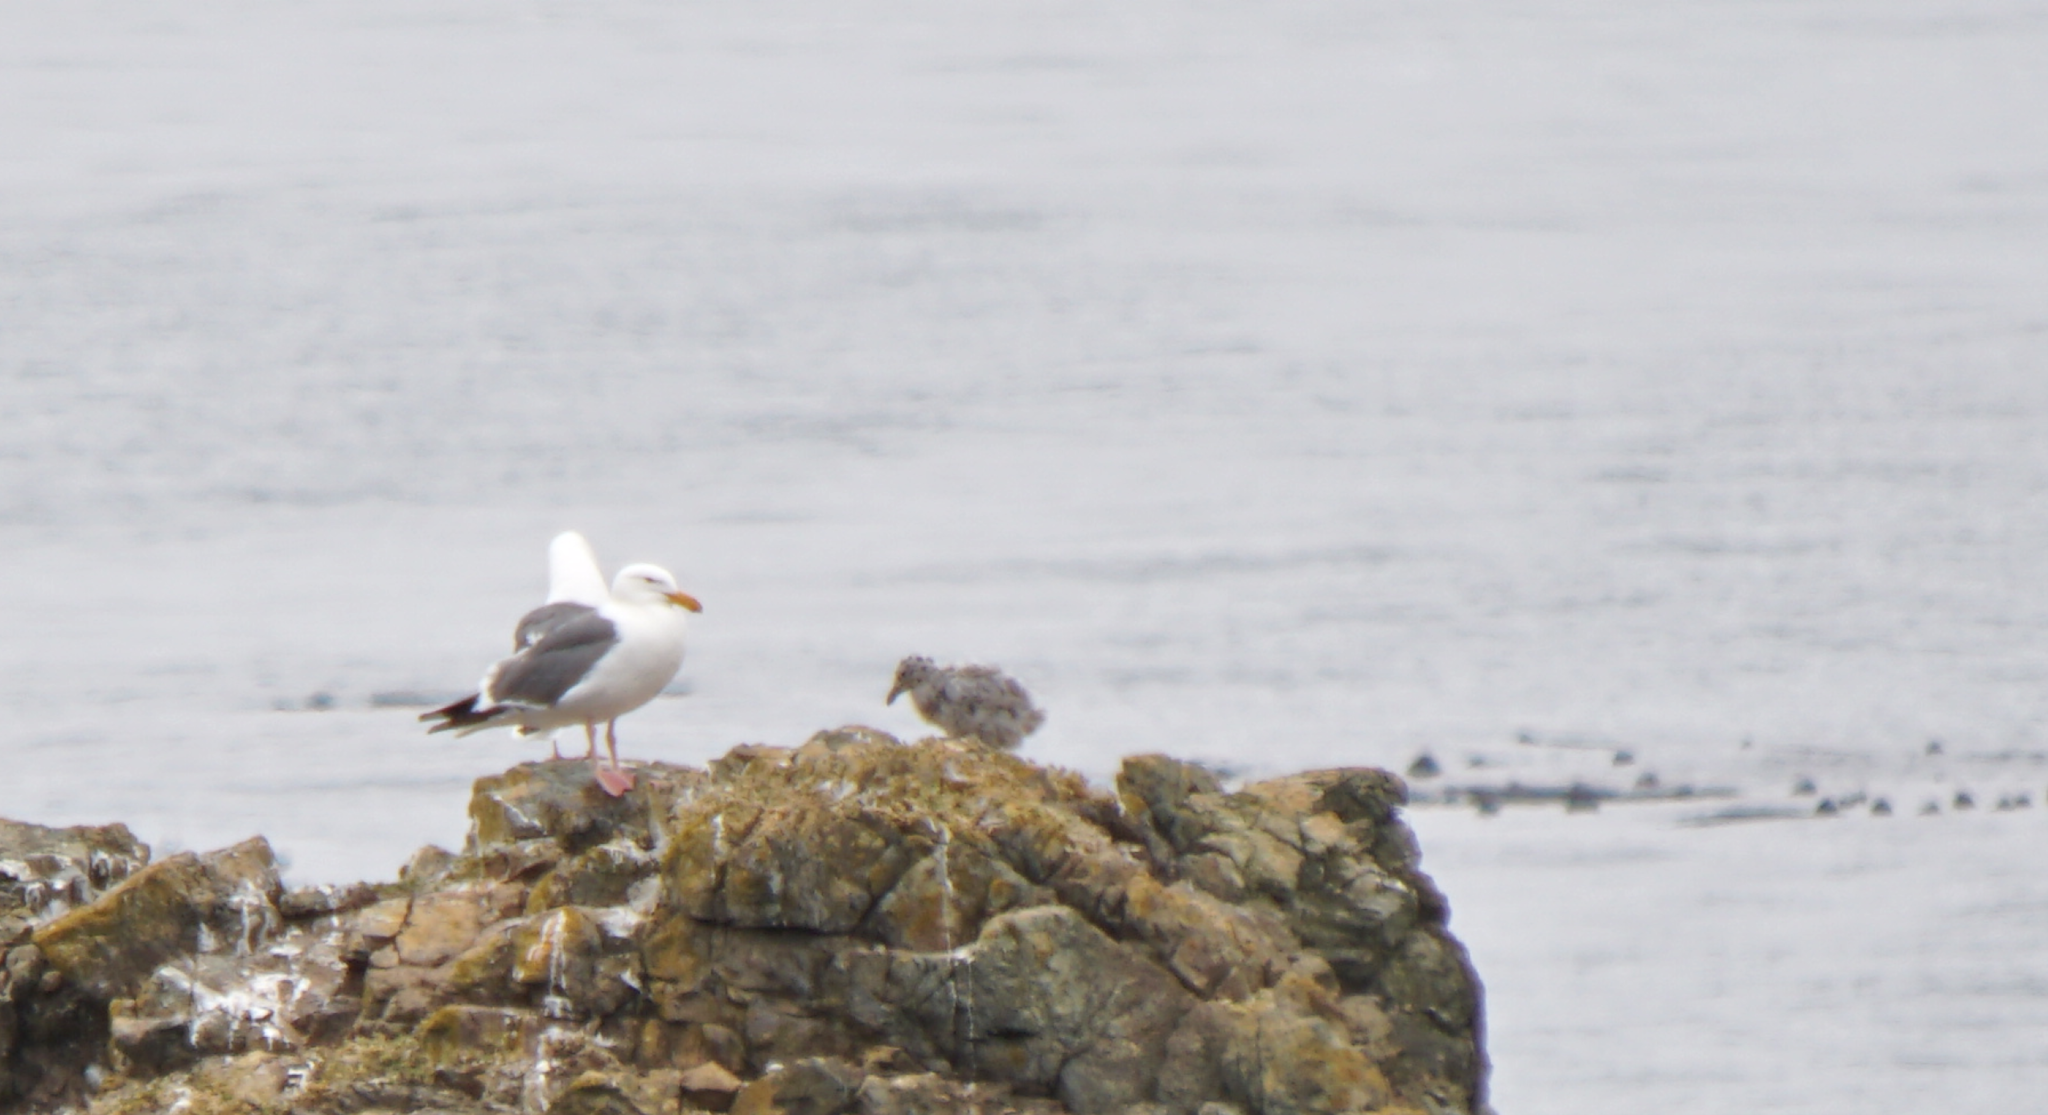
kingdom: Animalia
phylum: Chordata
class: Aves
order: Charadriiformes
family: Laridae
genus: Larus
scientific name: Larus occidentalis
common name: Western gull
